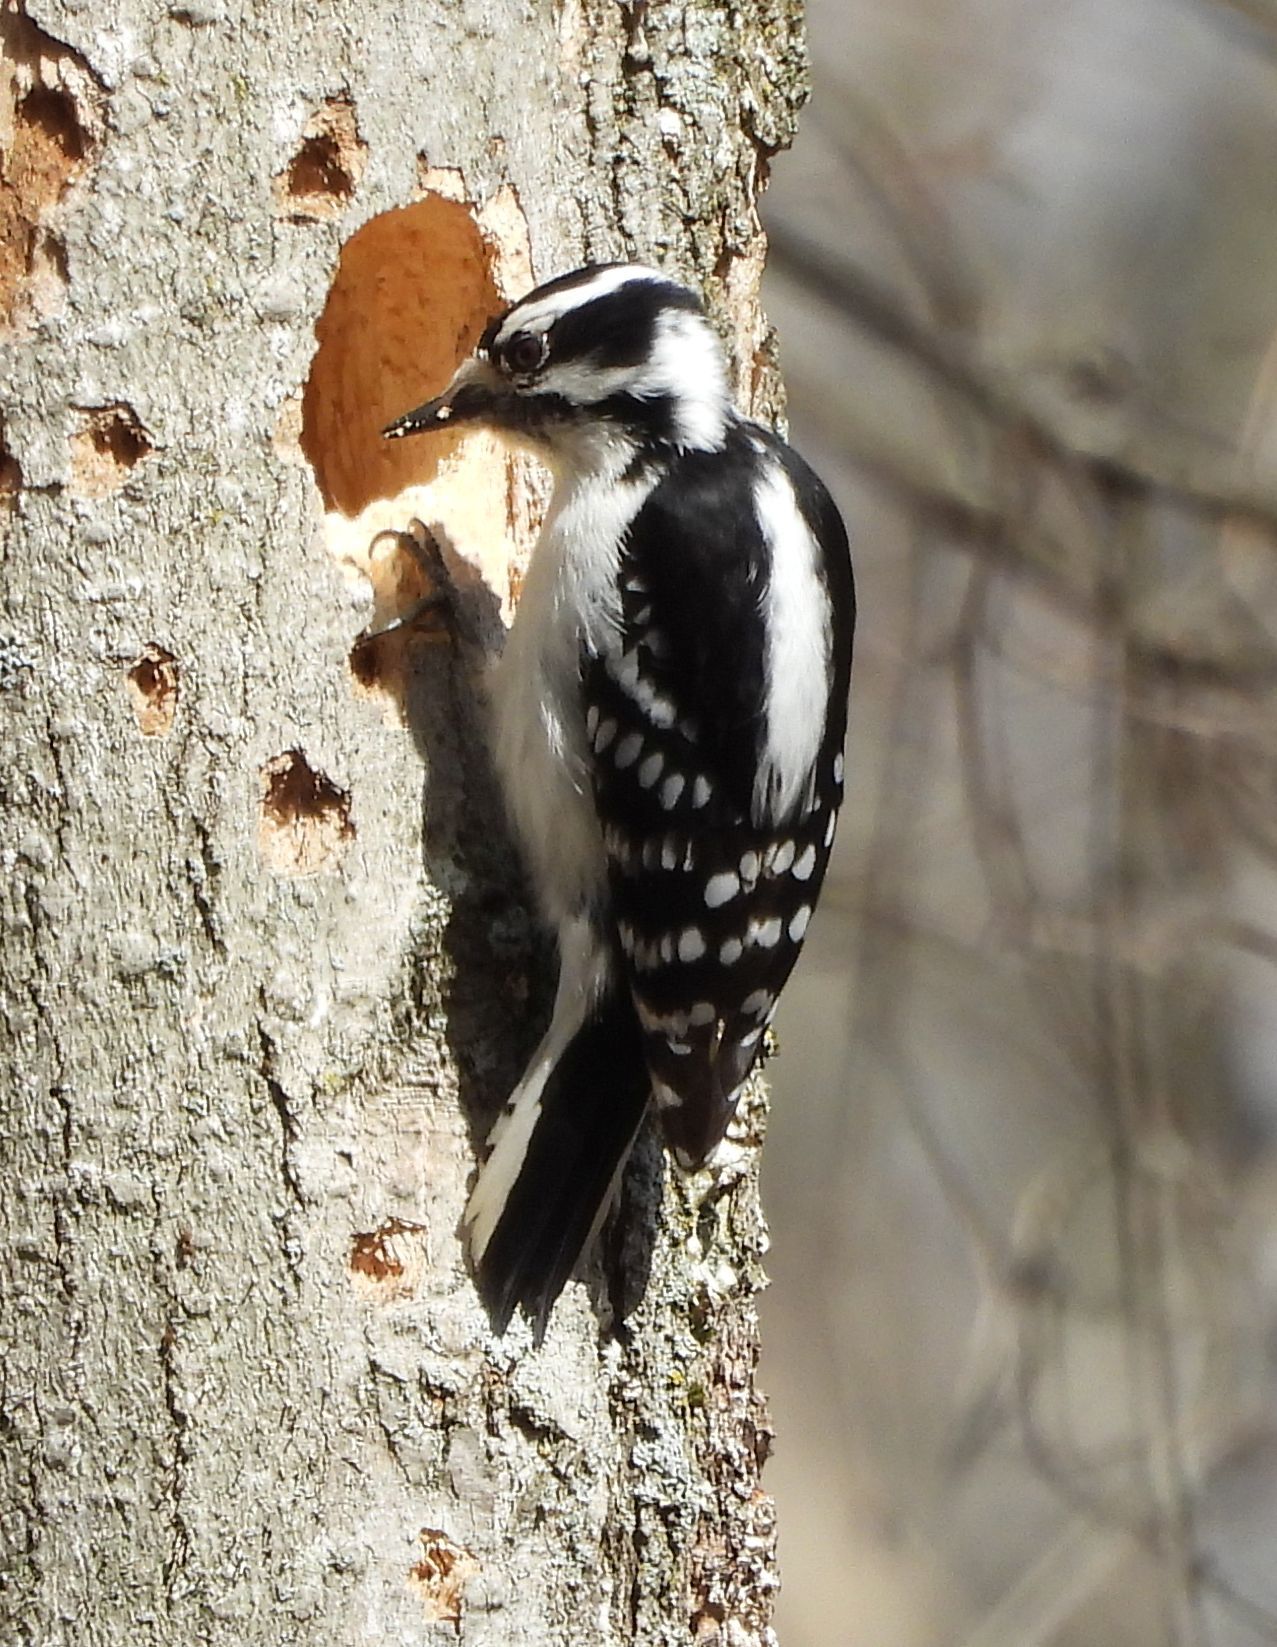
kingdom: Animalia
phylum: Chordata
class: Aves
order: Piciformes
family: Picidae
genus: Dryobates
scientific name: Dryobates pubescens
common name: Downy woodpecker
